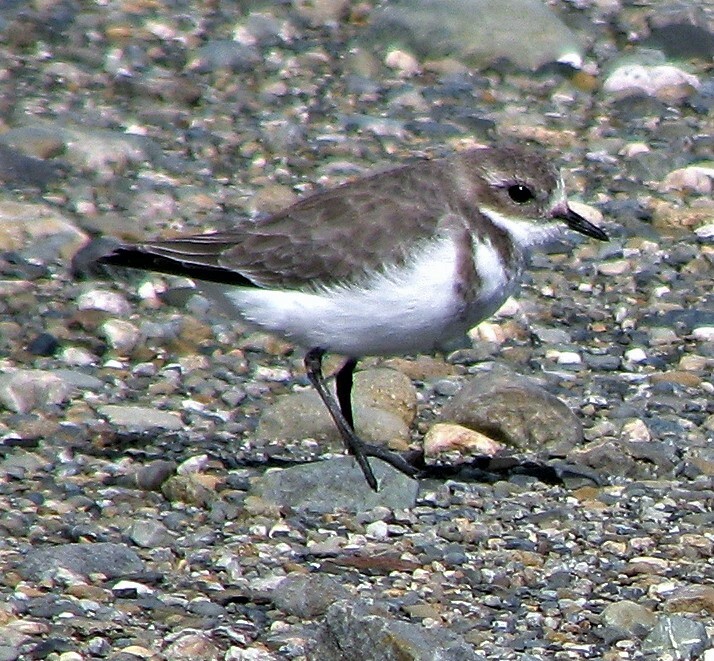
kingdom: Animalia
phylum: Chordata
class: Aves
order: Charadriiformes
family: Charadriidae
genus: Anarhynchus
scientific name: Anarhynchus
